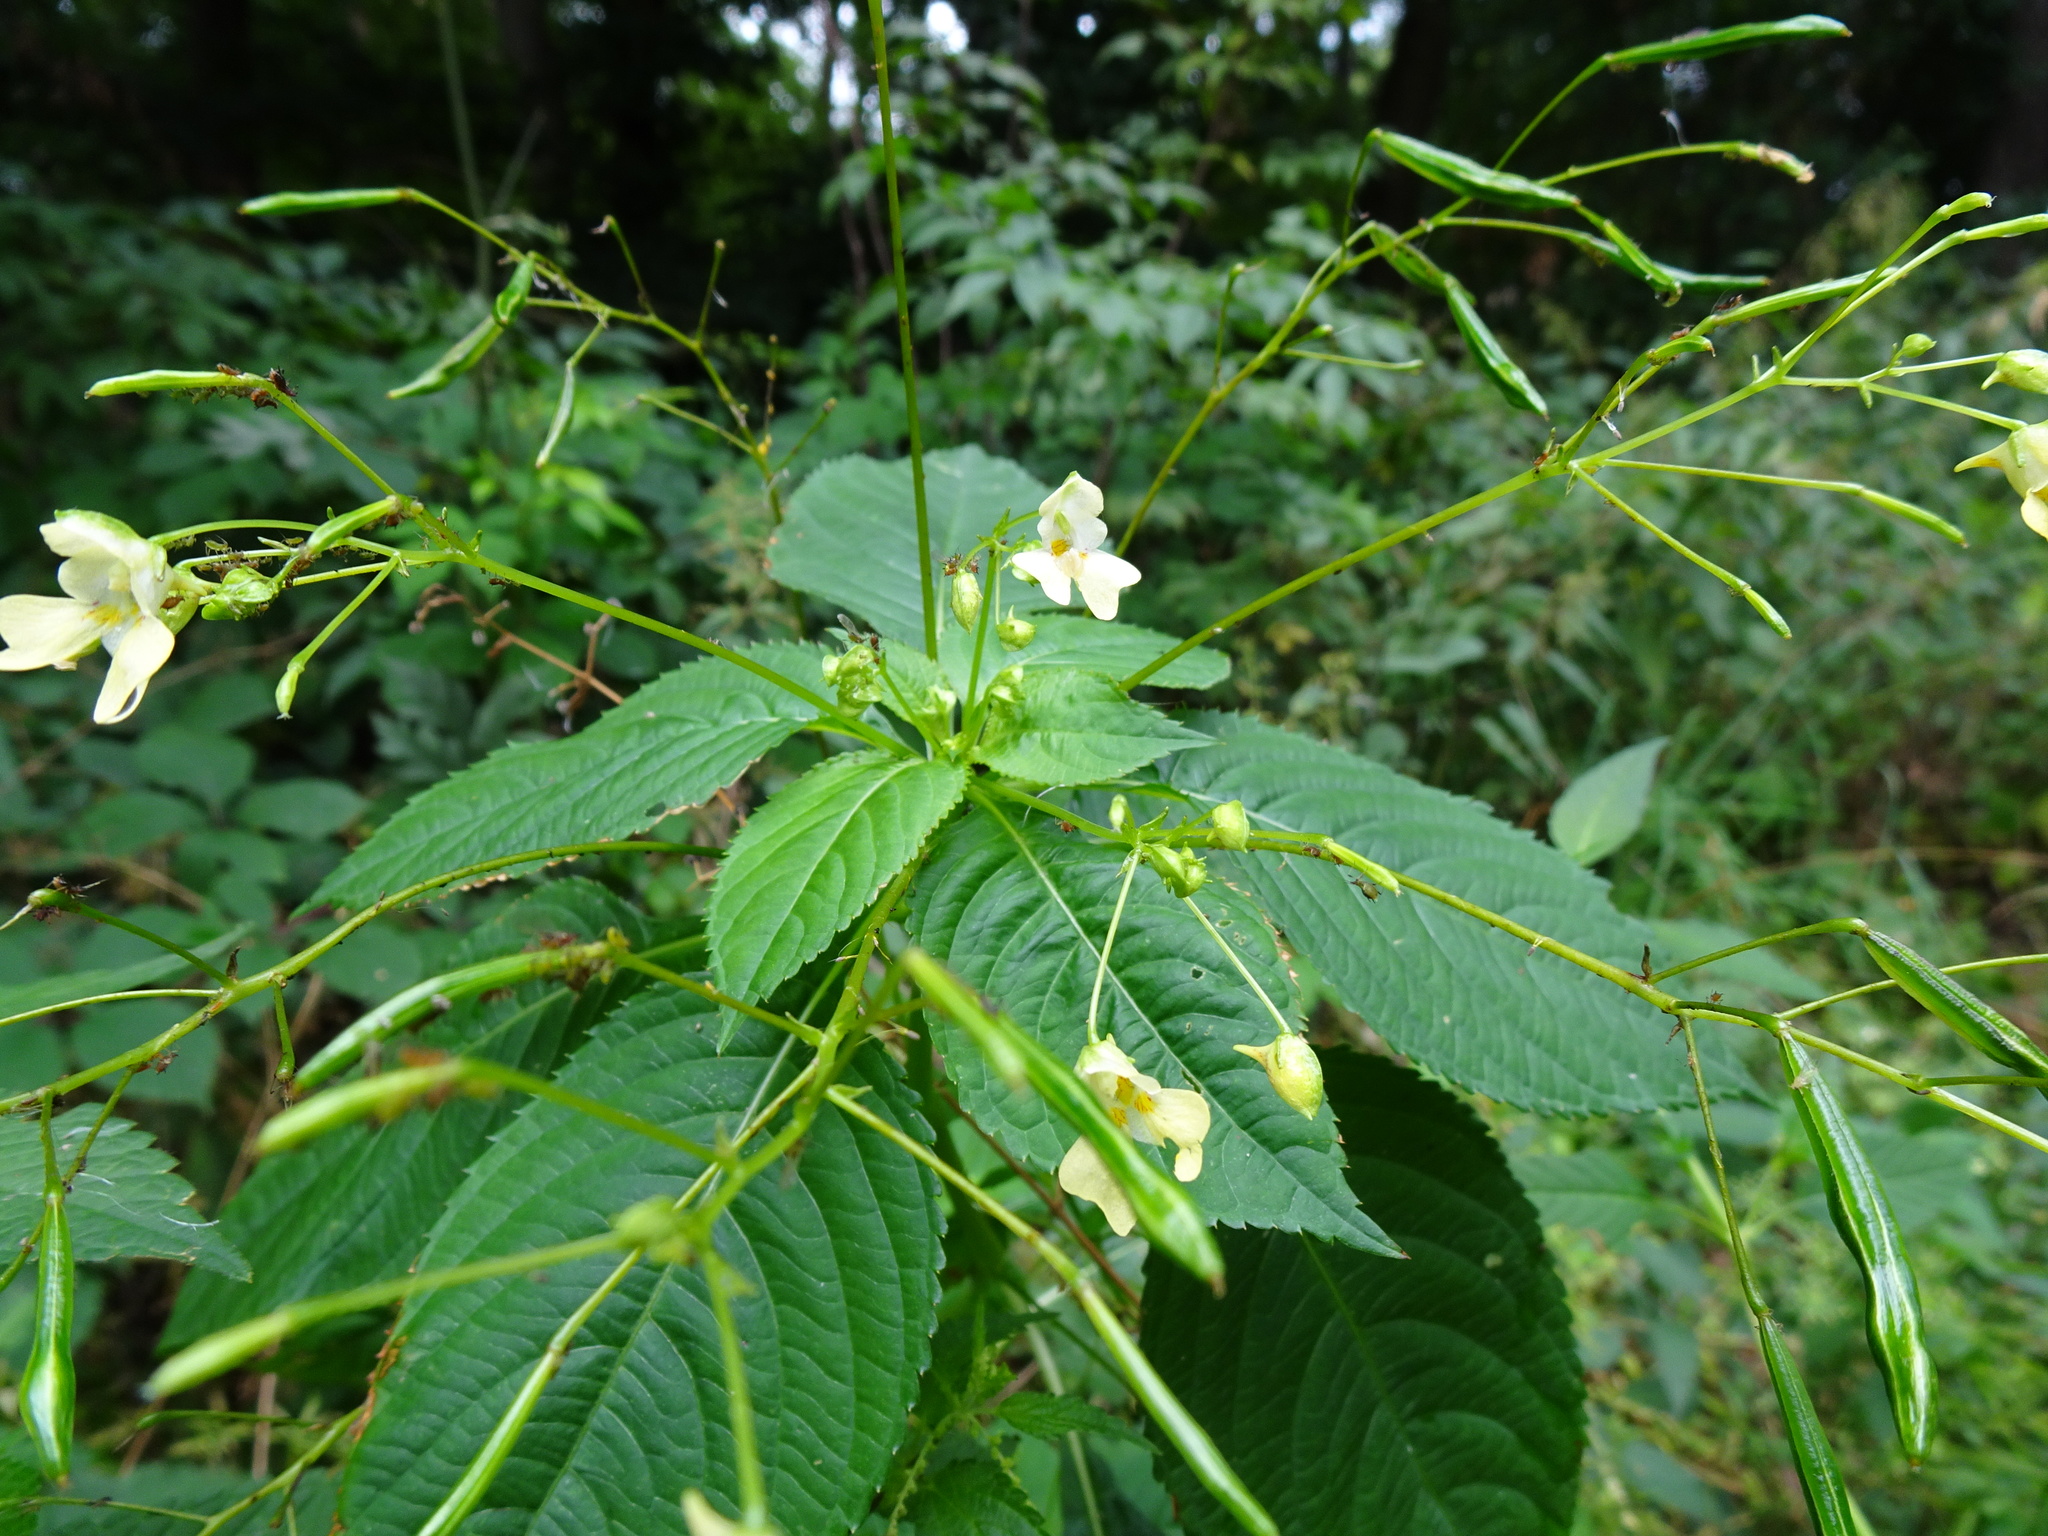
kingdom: Plantae
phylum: Tracheophyta
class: Magnoliopsida
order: Ericales
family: Balsaminaceae
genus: Impatiens
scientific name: Impatiens parviflora
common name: Small balsam
